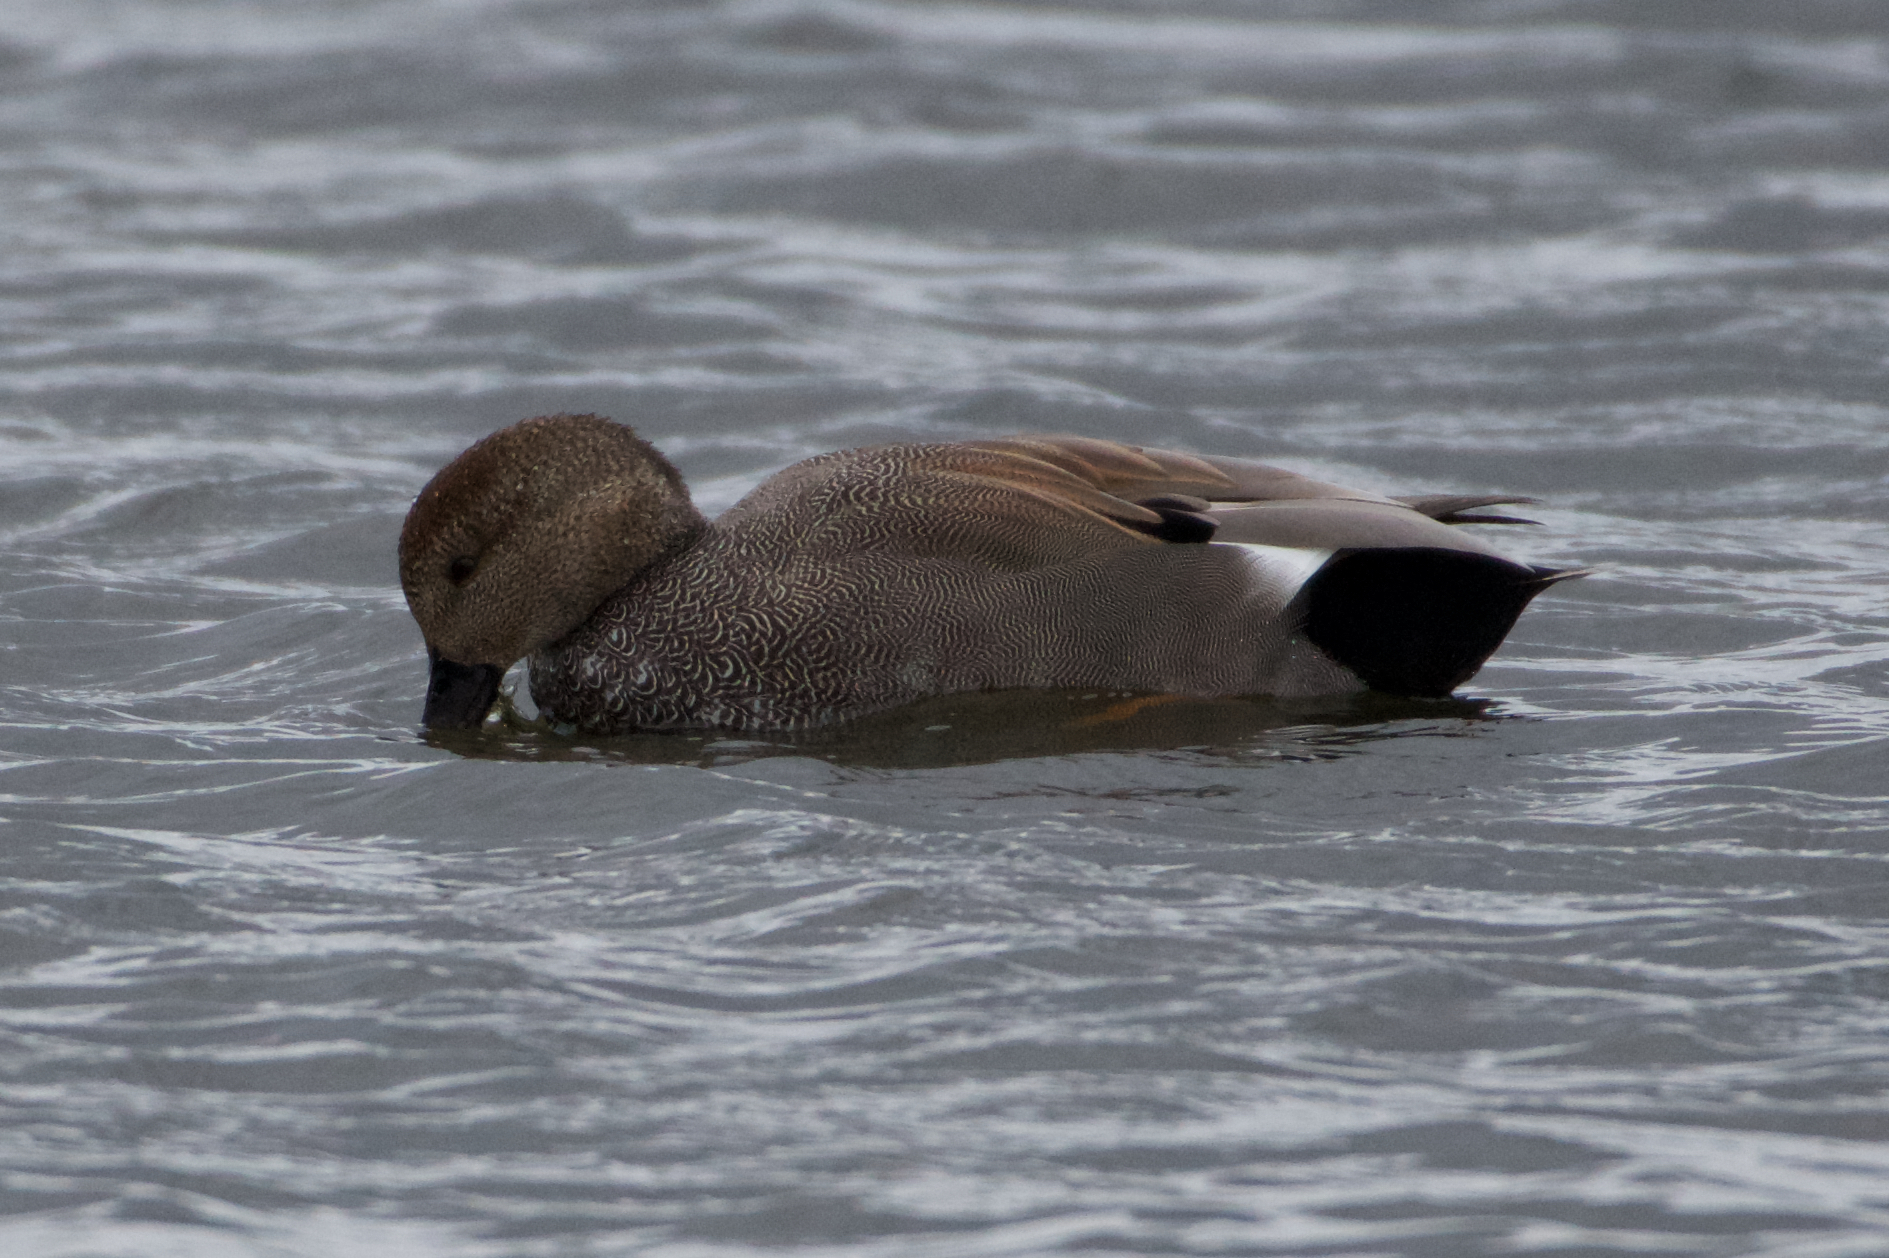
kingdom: Animalia
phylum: Chordata
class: Aves
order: Anseriformes
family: Anatidae
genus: Mareca
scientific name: Mareca strepera
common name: Gadwall
